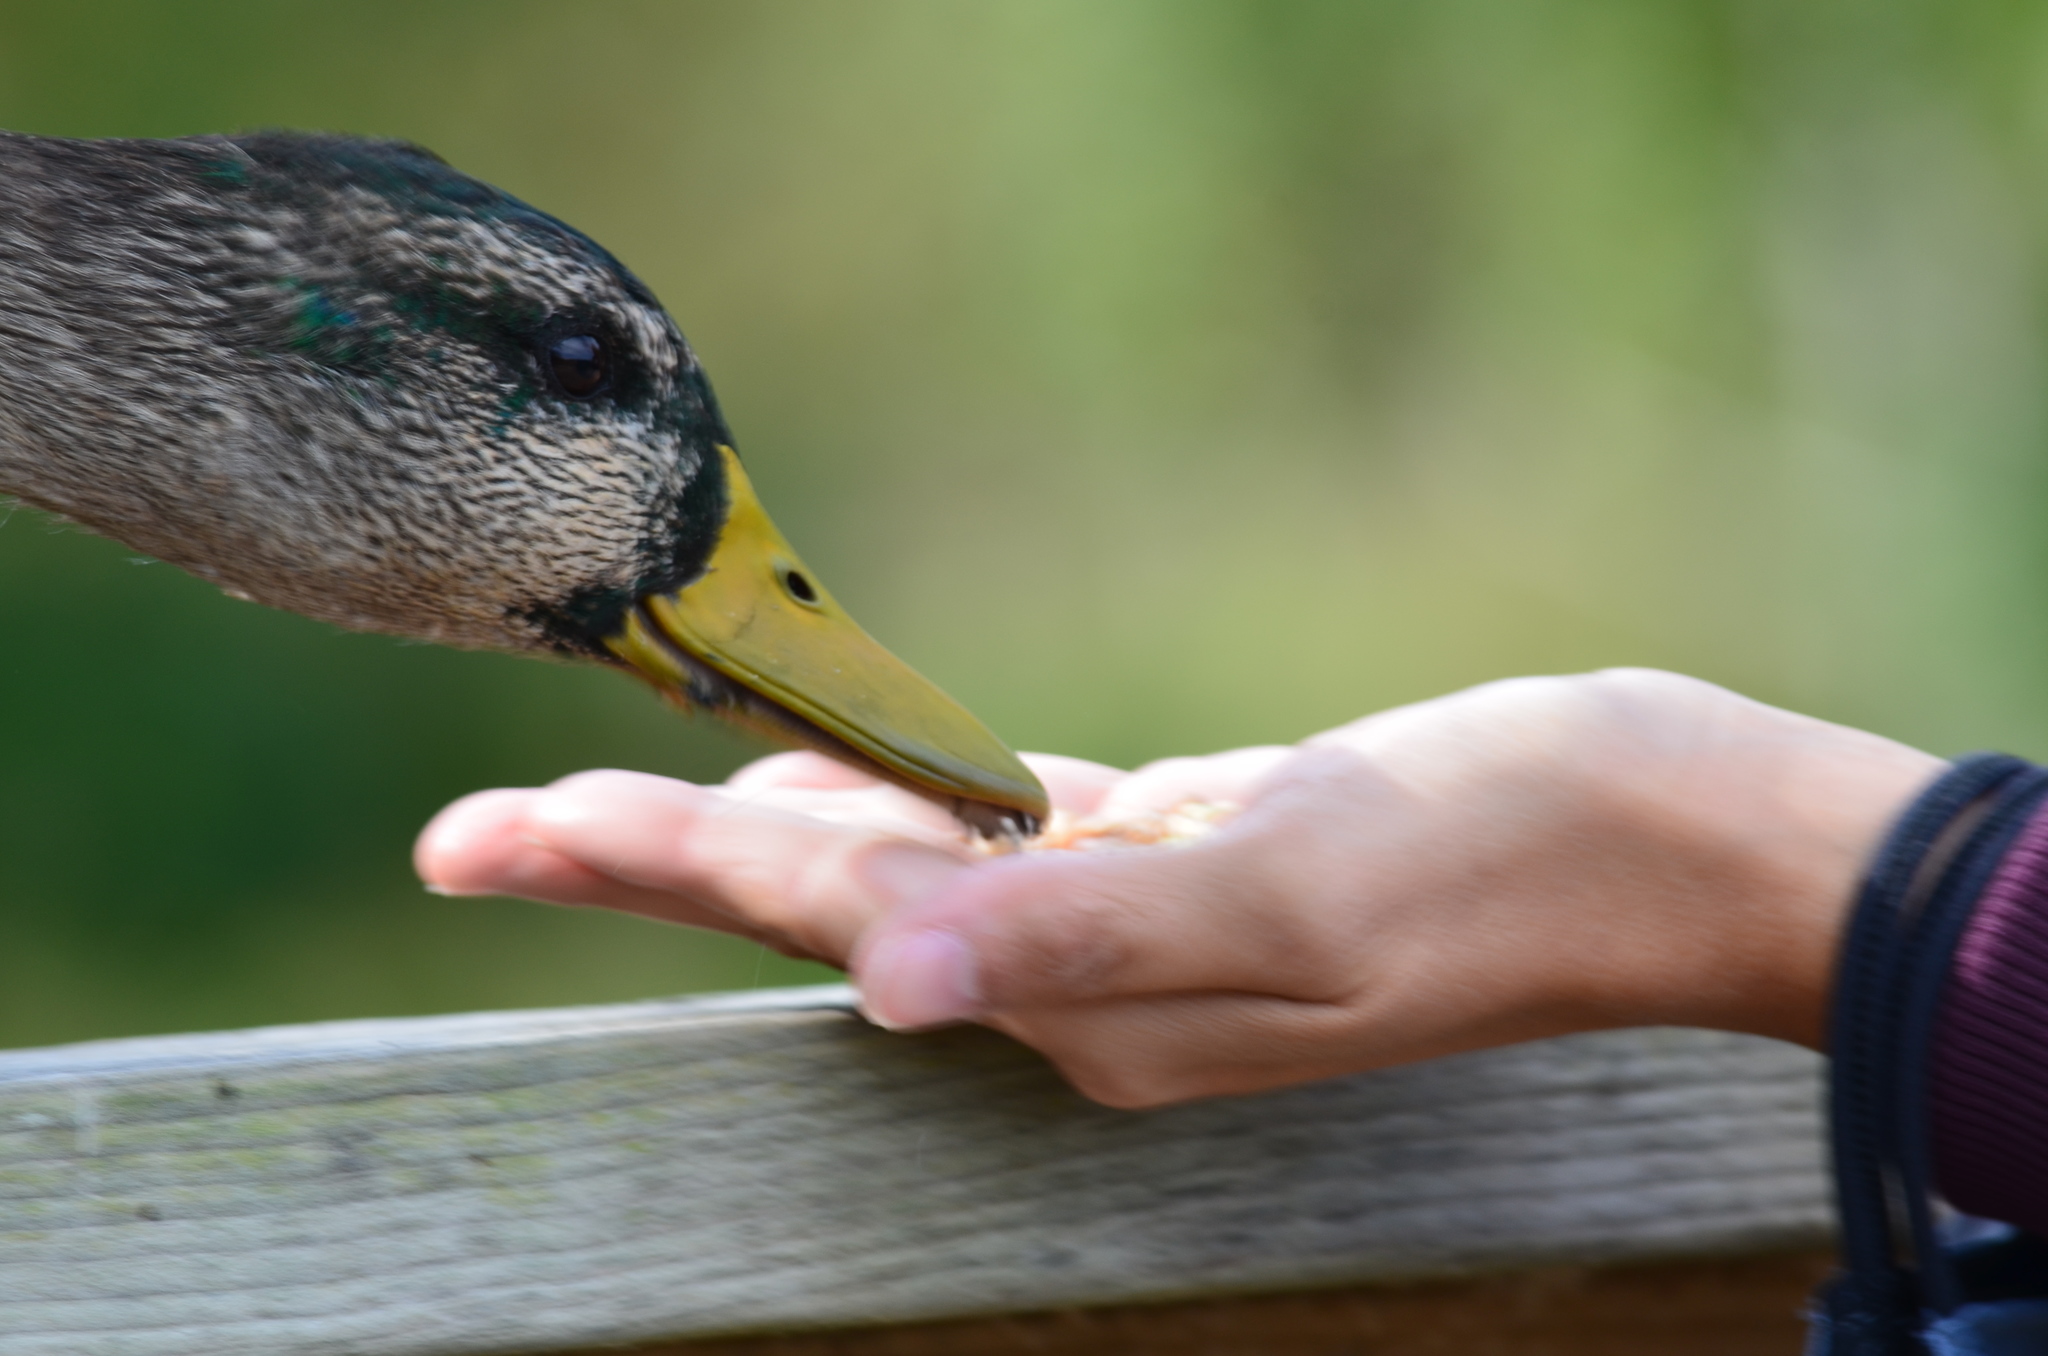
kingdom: Animalia
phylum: Chordata
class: Aves
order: Anseriformes
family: Anatidae
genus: Anas
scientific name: Anas platyrhynchos
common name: Mallard
